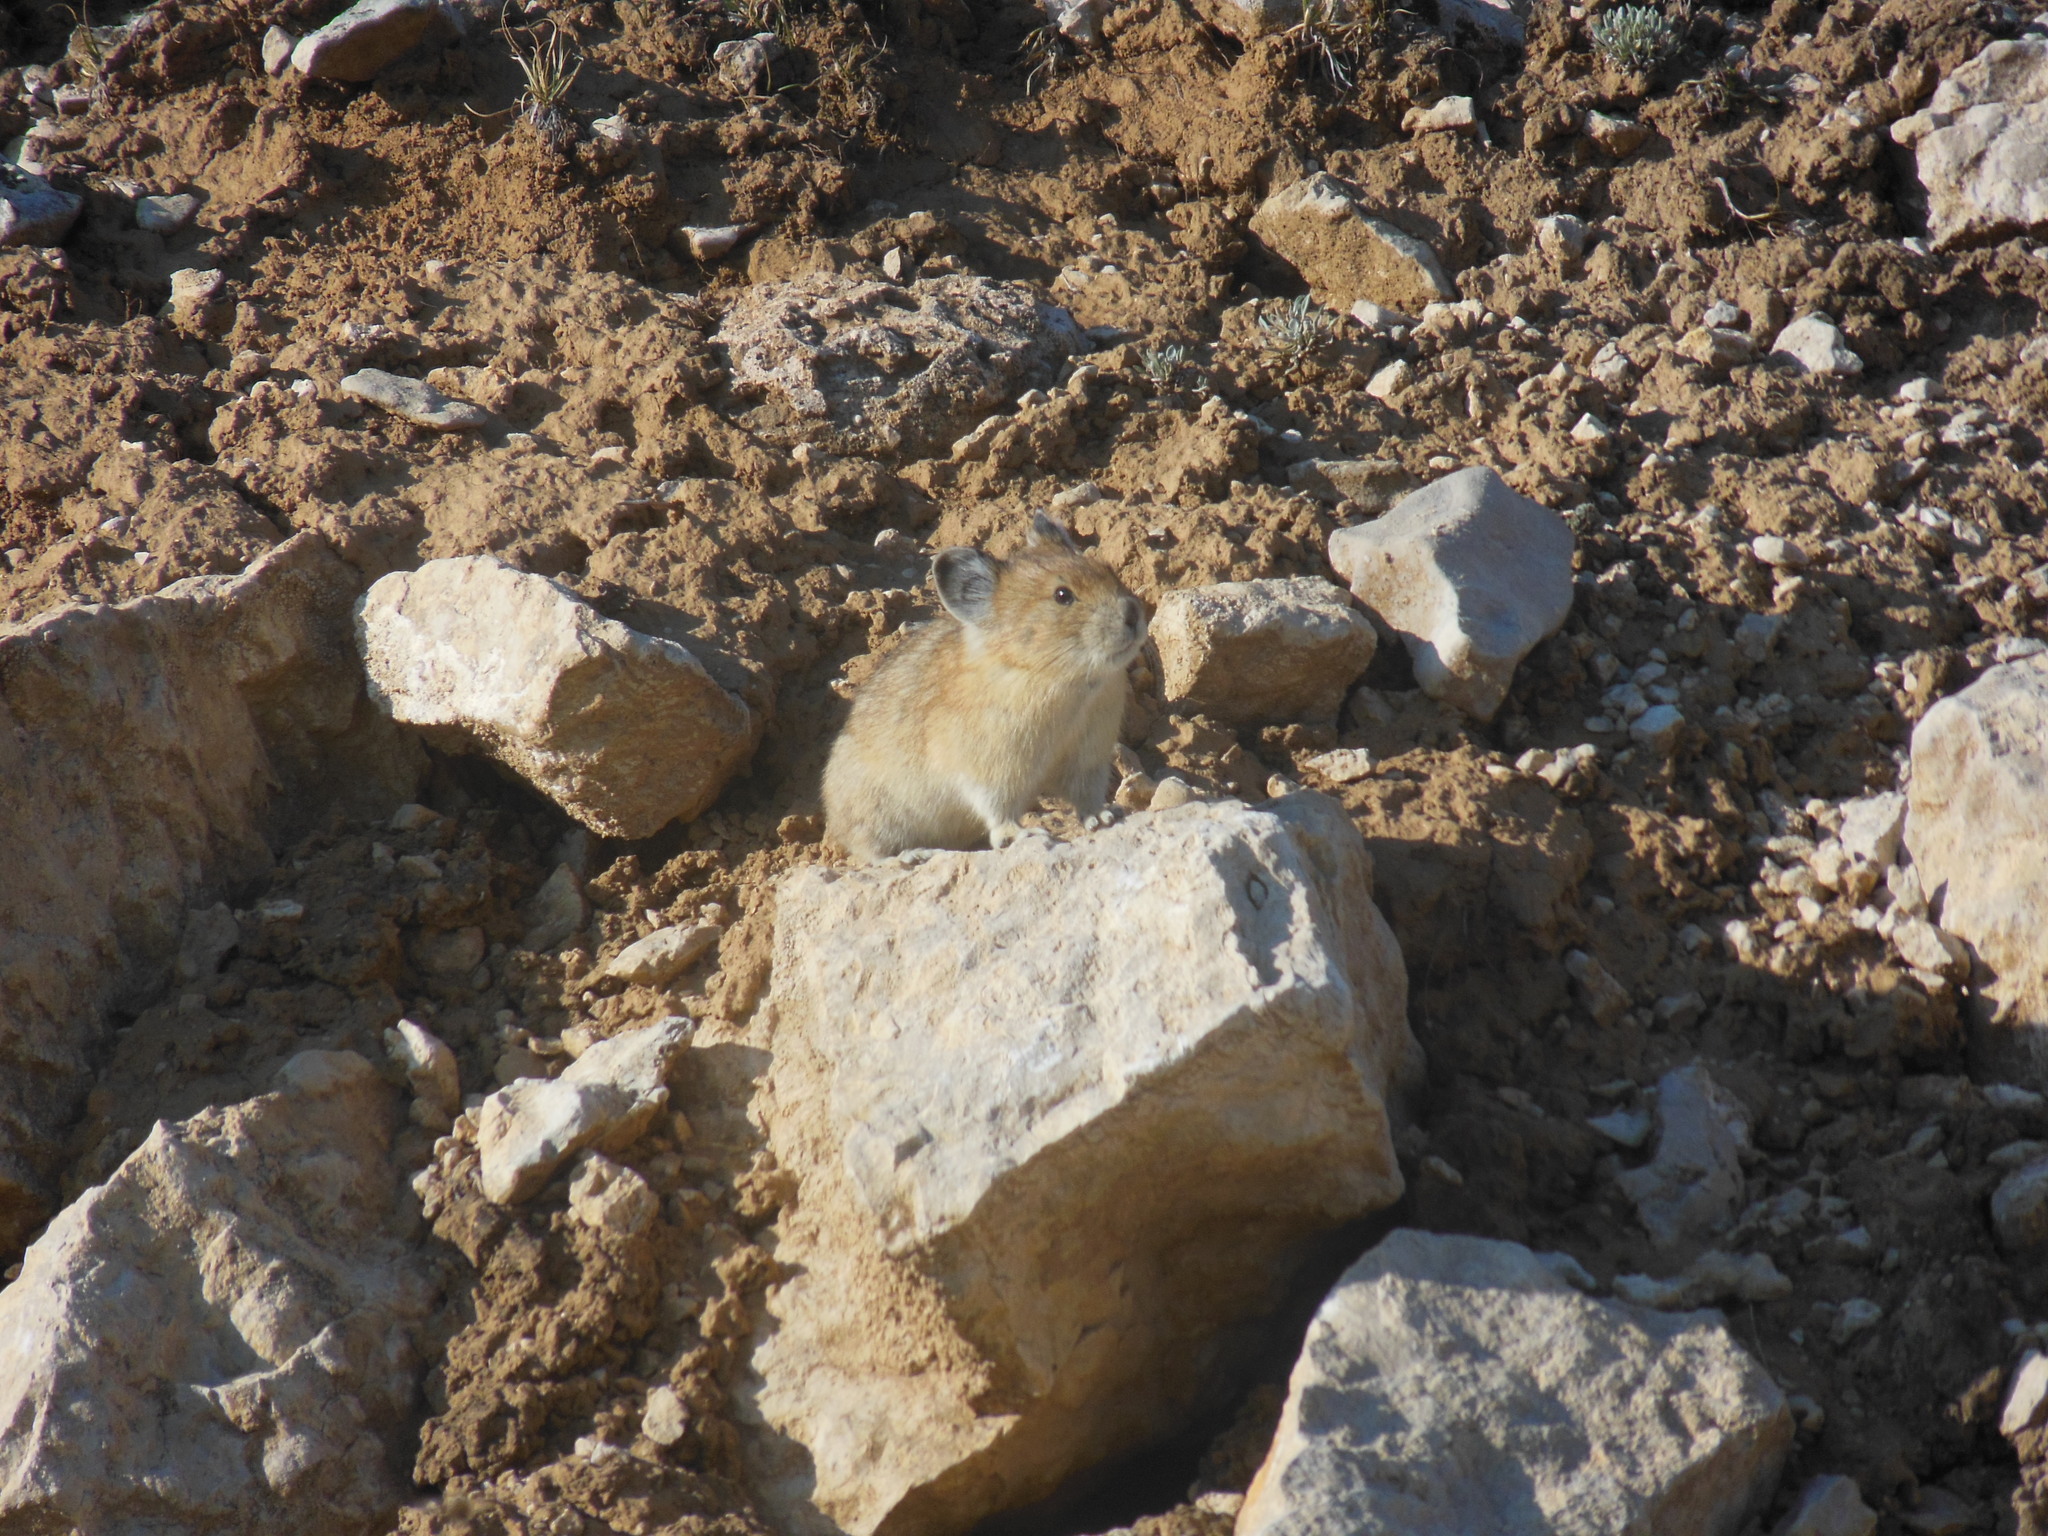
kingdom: Animalia
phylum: Chordata
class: Mammalia
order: Lagomorpha
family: Ochotonidae
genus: Ochotona
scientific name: Ochotona princeps
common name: American pika
